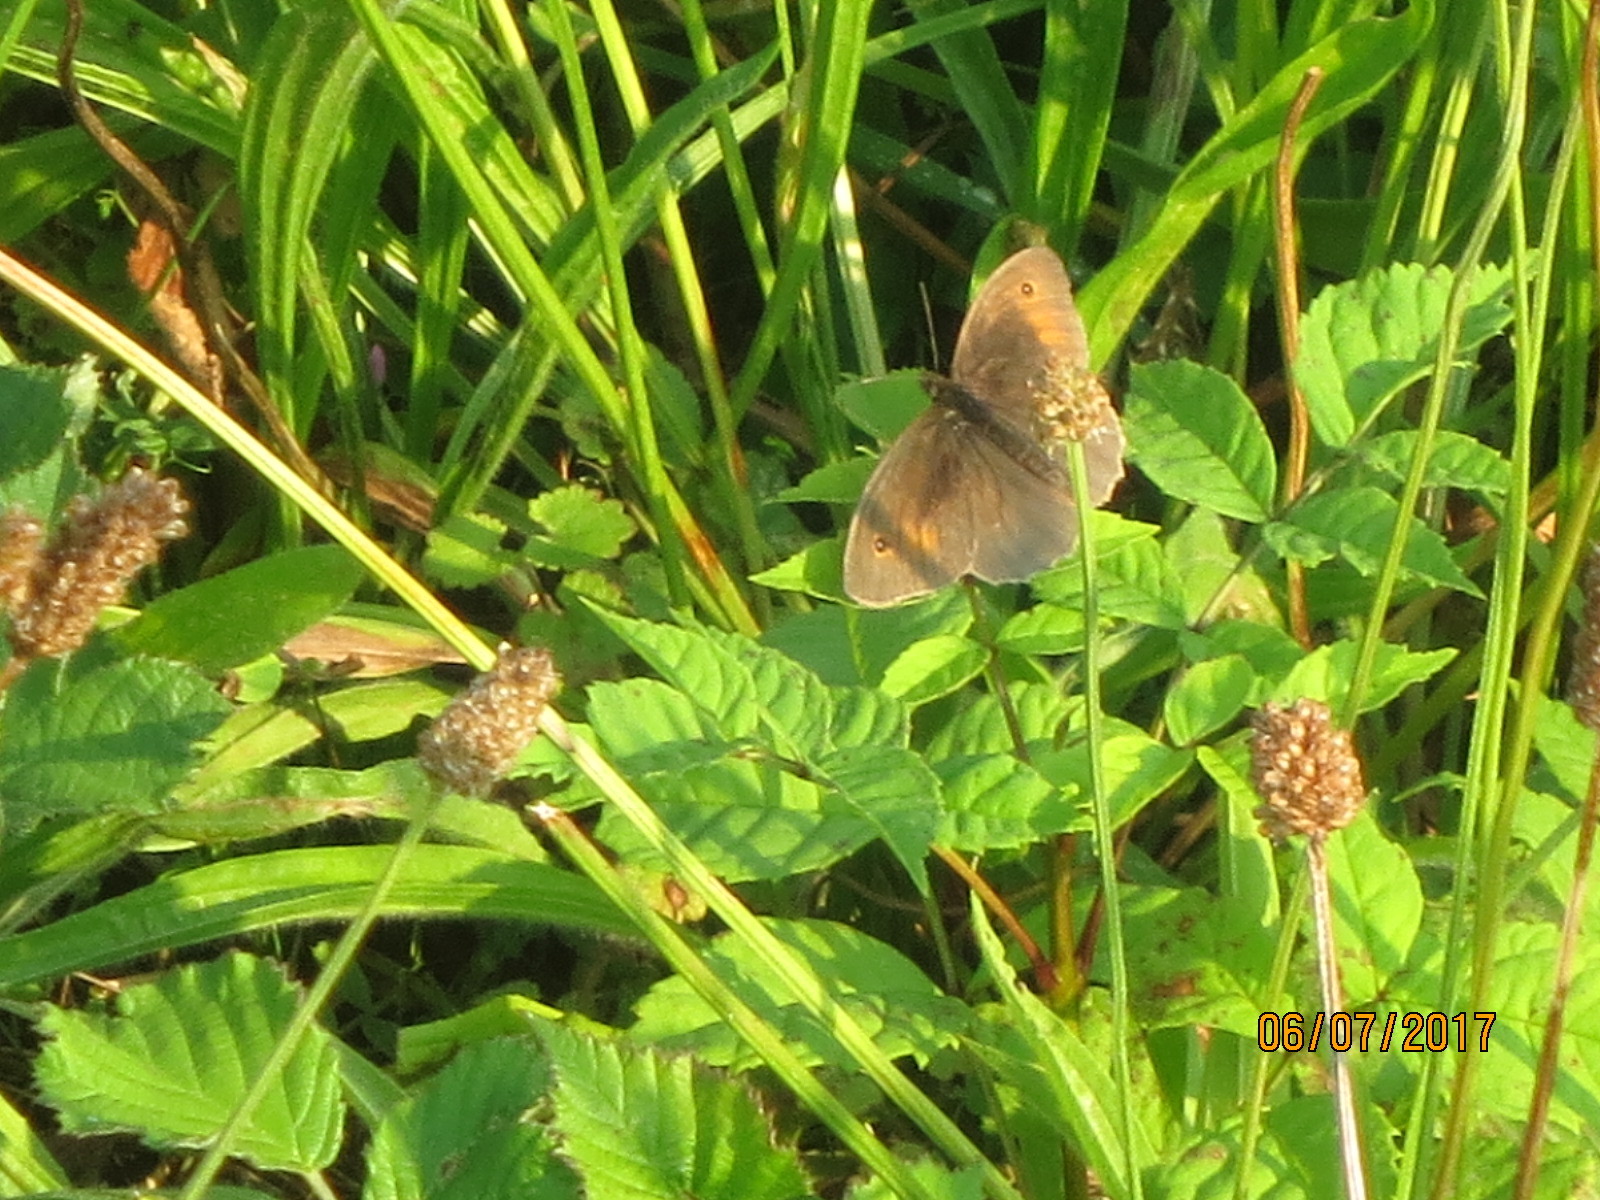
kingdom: Animalia
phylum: Arthropoda
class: Insecta
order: Lepidoptera
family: Nymphalidae
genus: Maniola
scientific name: Maniola jurtina
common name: Meadow brown
